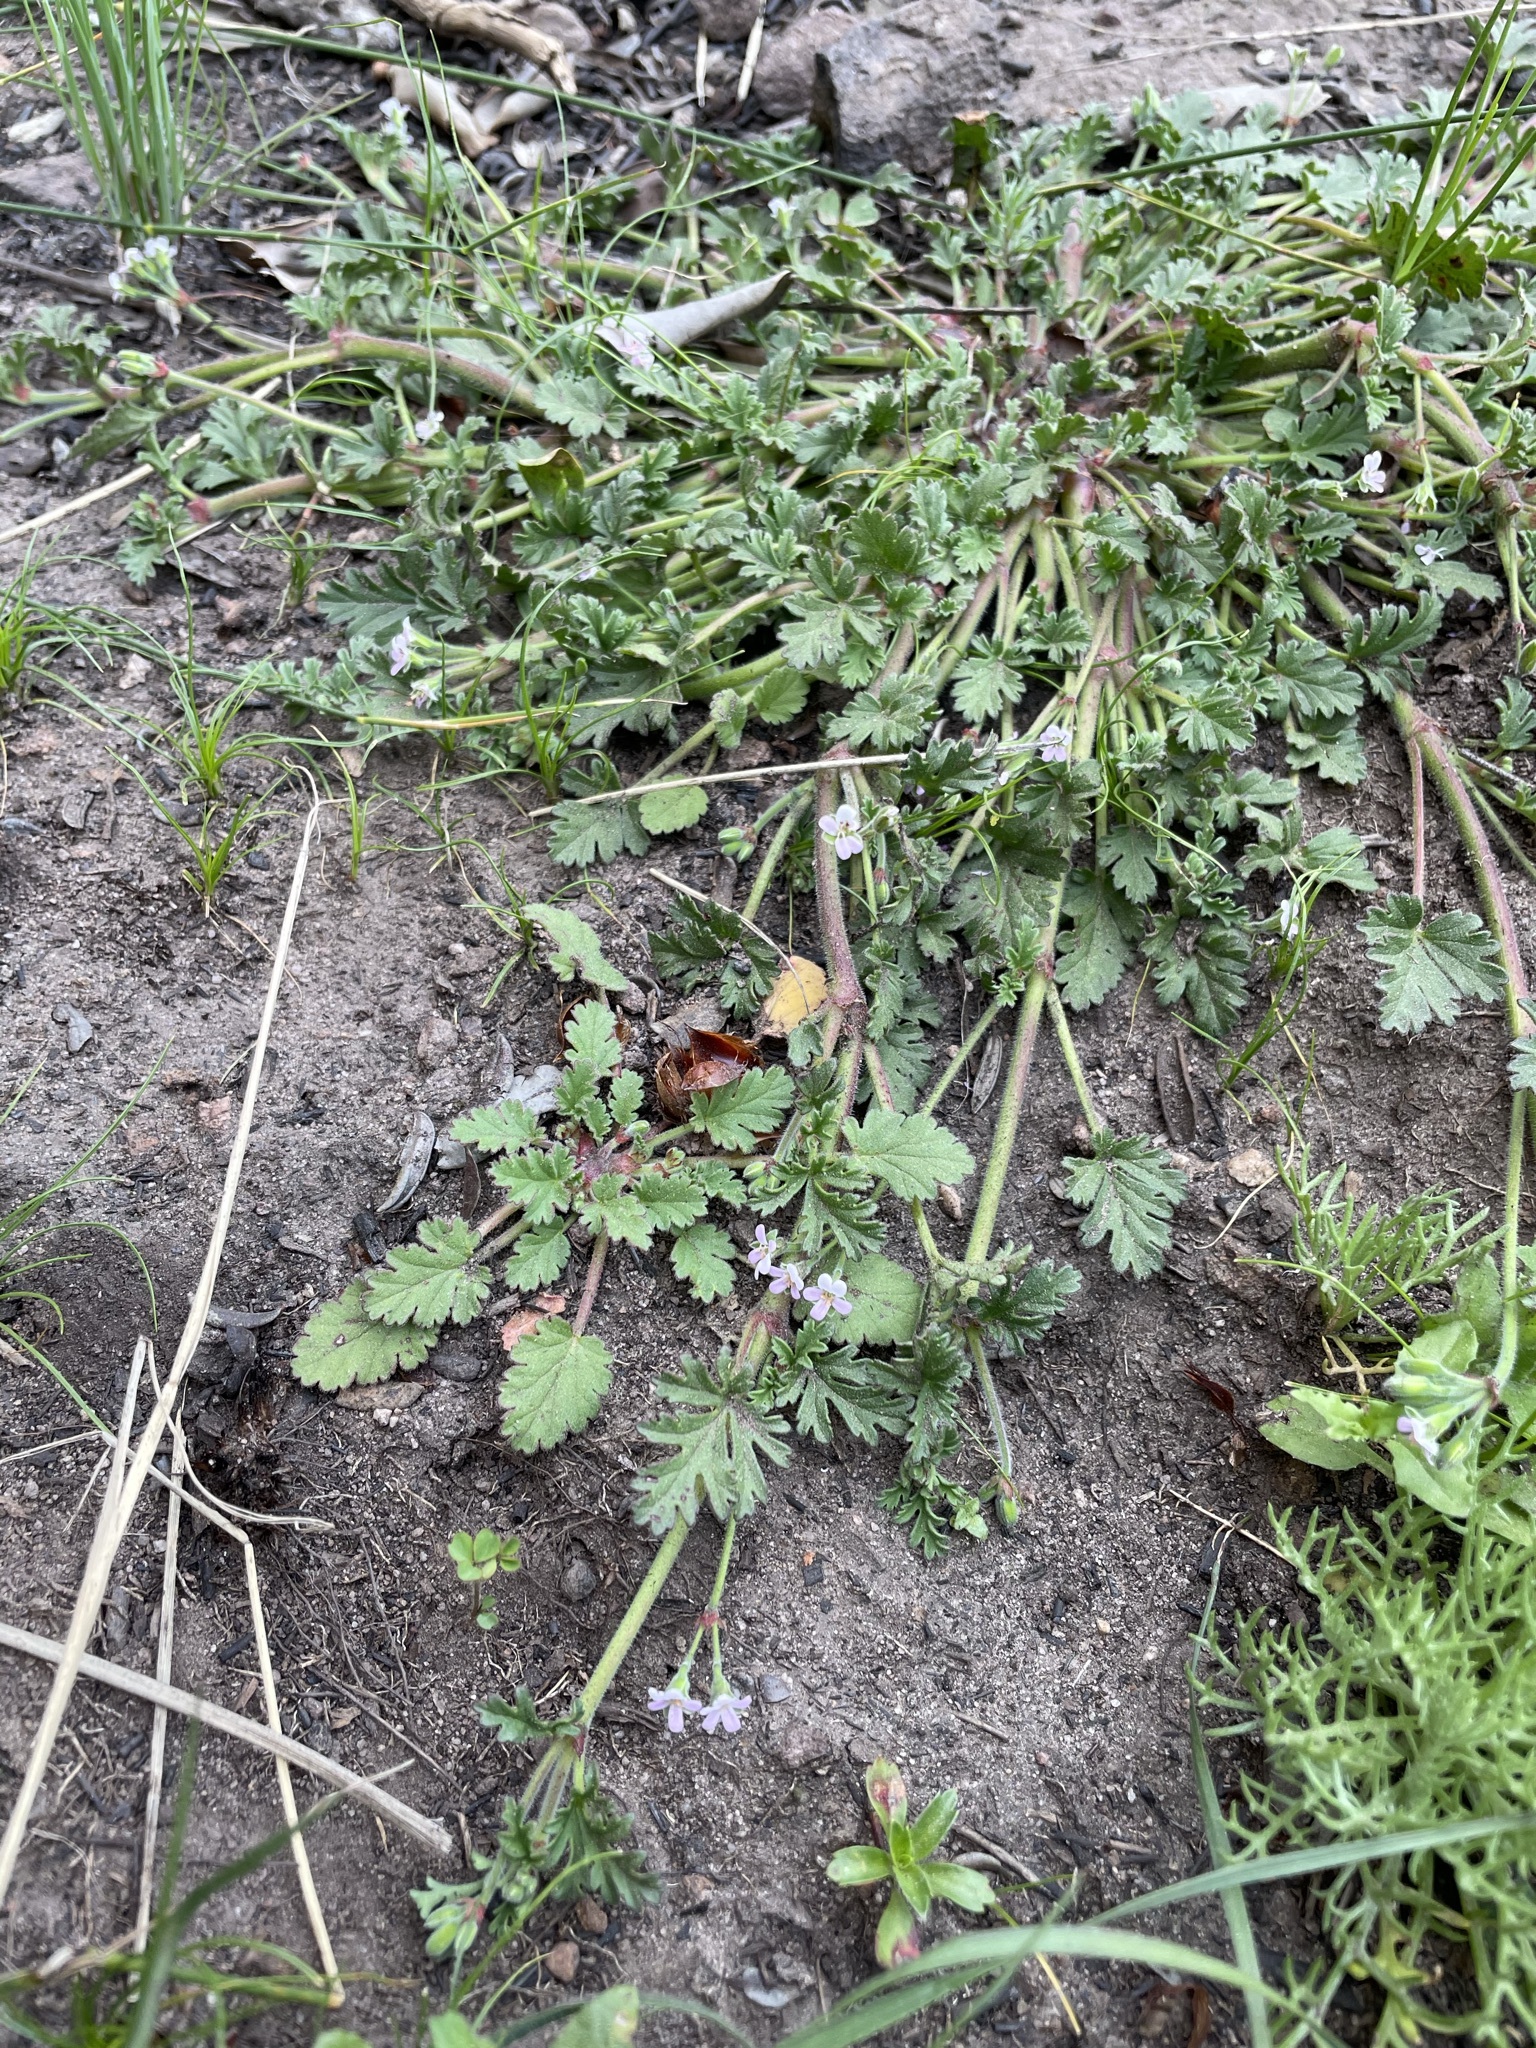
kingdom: Plantae
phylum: Tracheophyta
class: Magnoliopsida
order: Geraniales
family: Geraniaceae
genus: Pelargonium
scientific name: Pelargonium nanum
